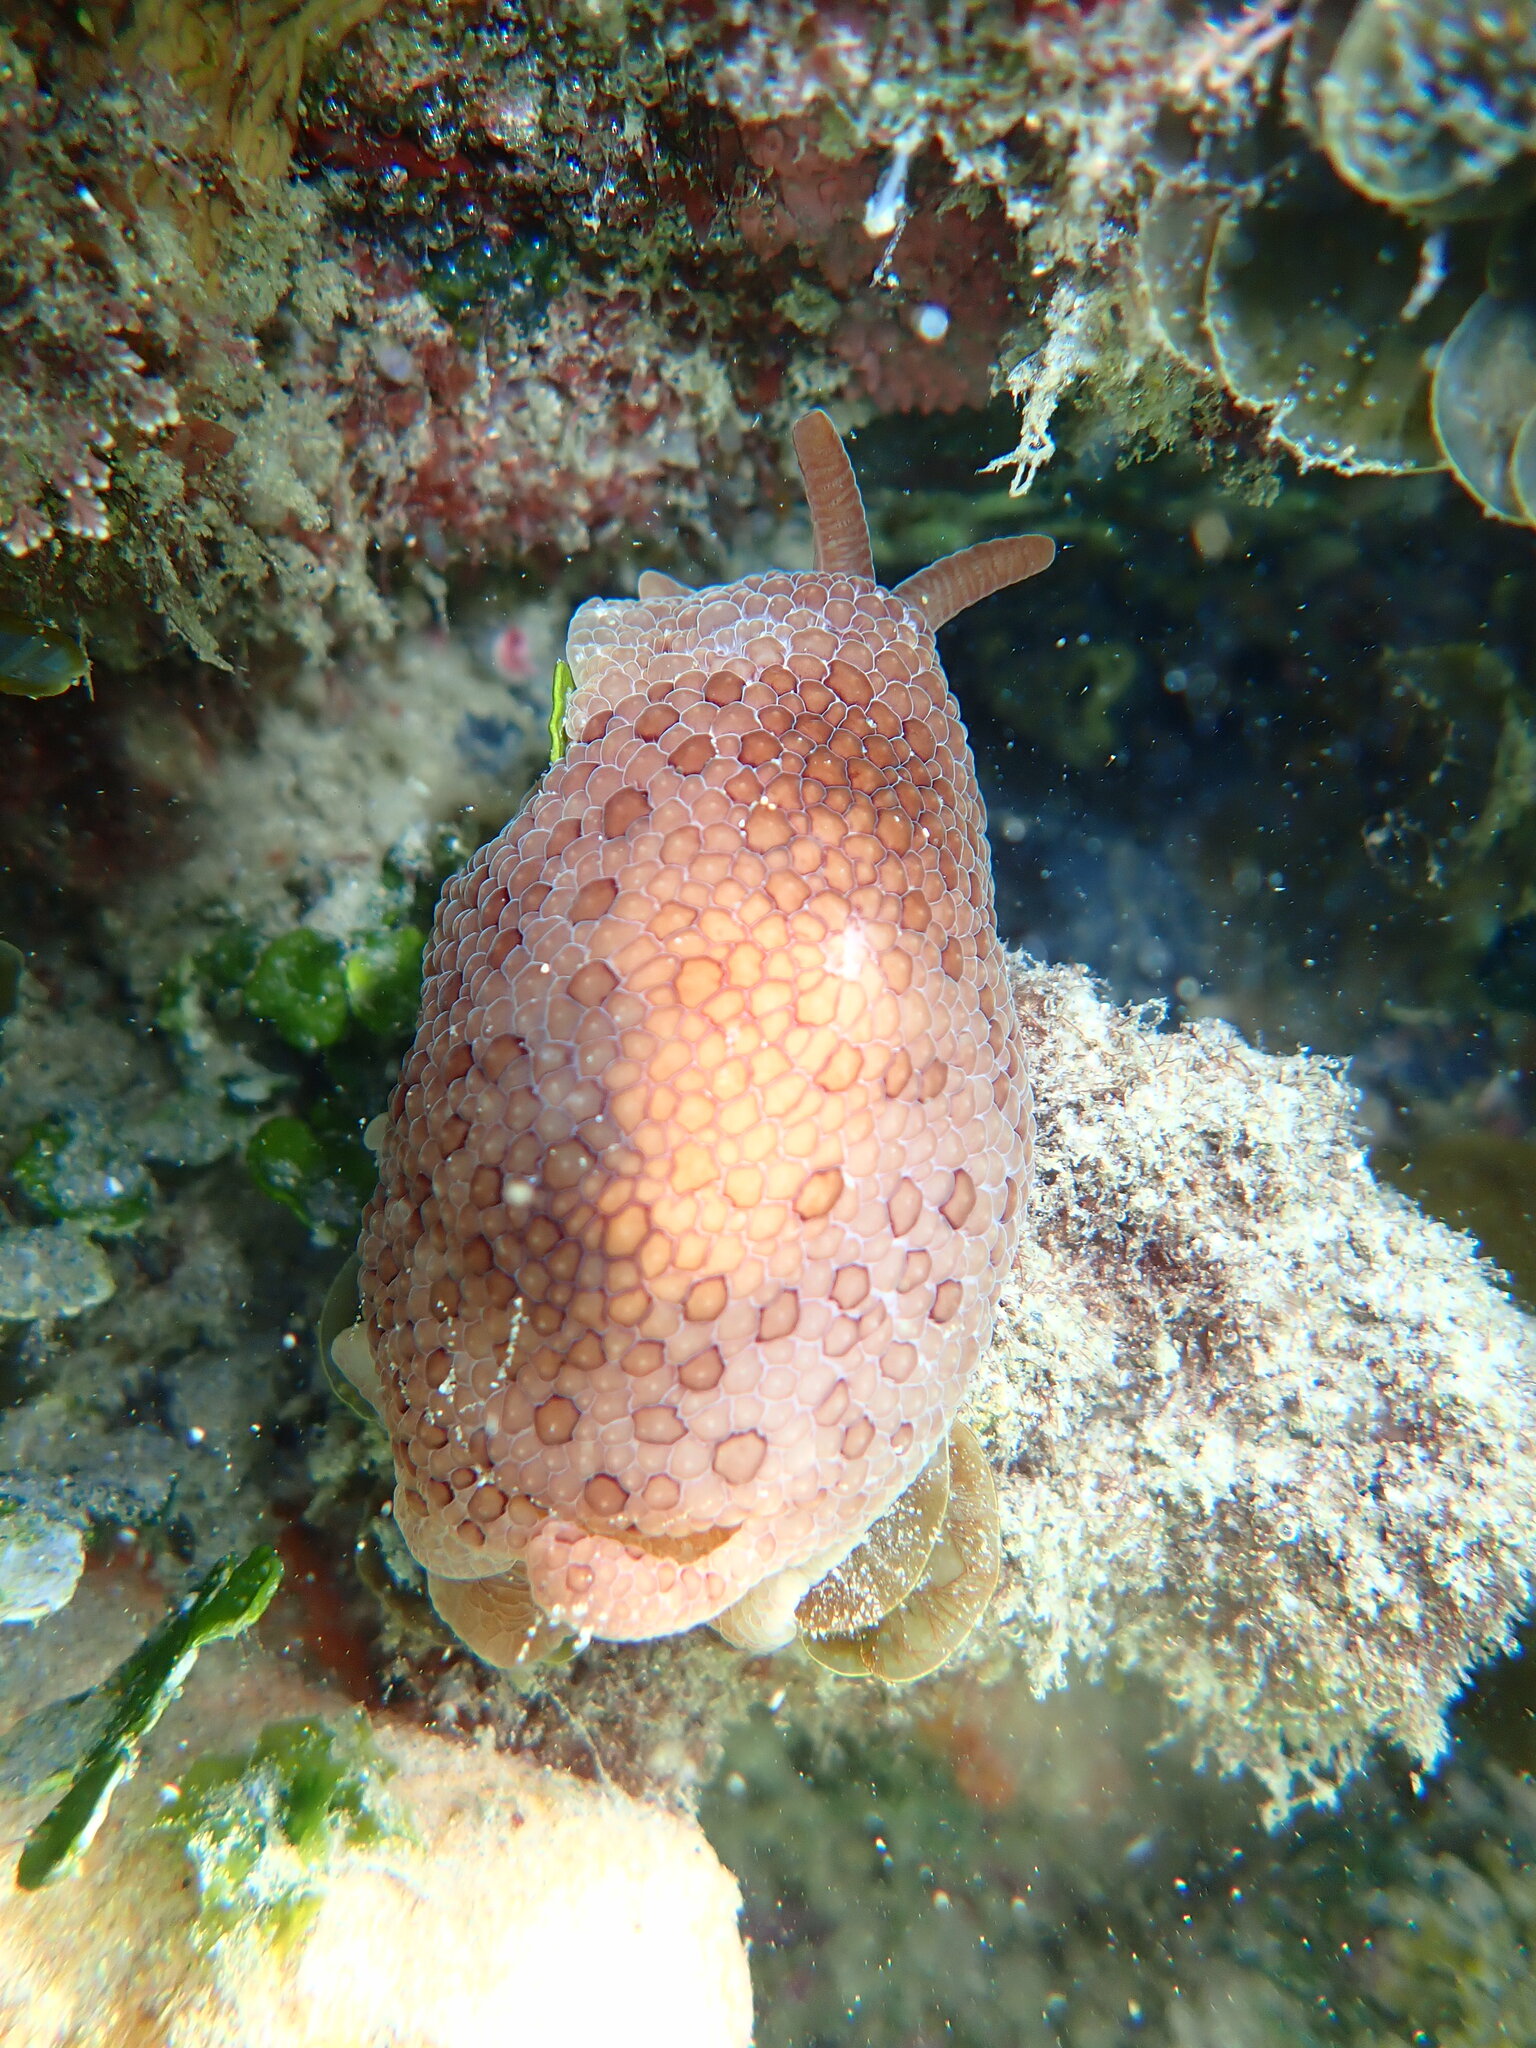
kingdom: Animalia
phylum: Mollusca
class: Gastropoda
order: Pleurobranchida
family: Pleurobranchidae
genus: Pleurobranchus
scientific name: Pleurobranchus peronii
